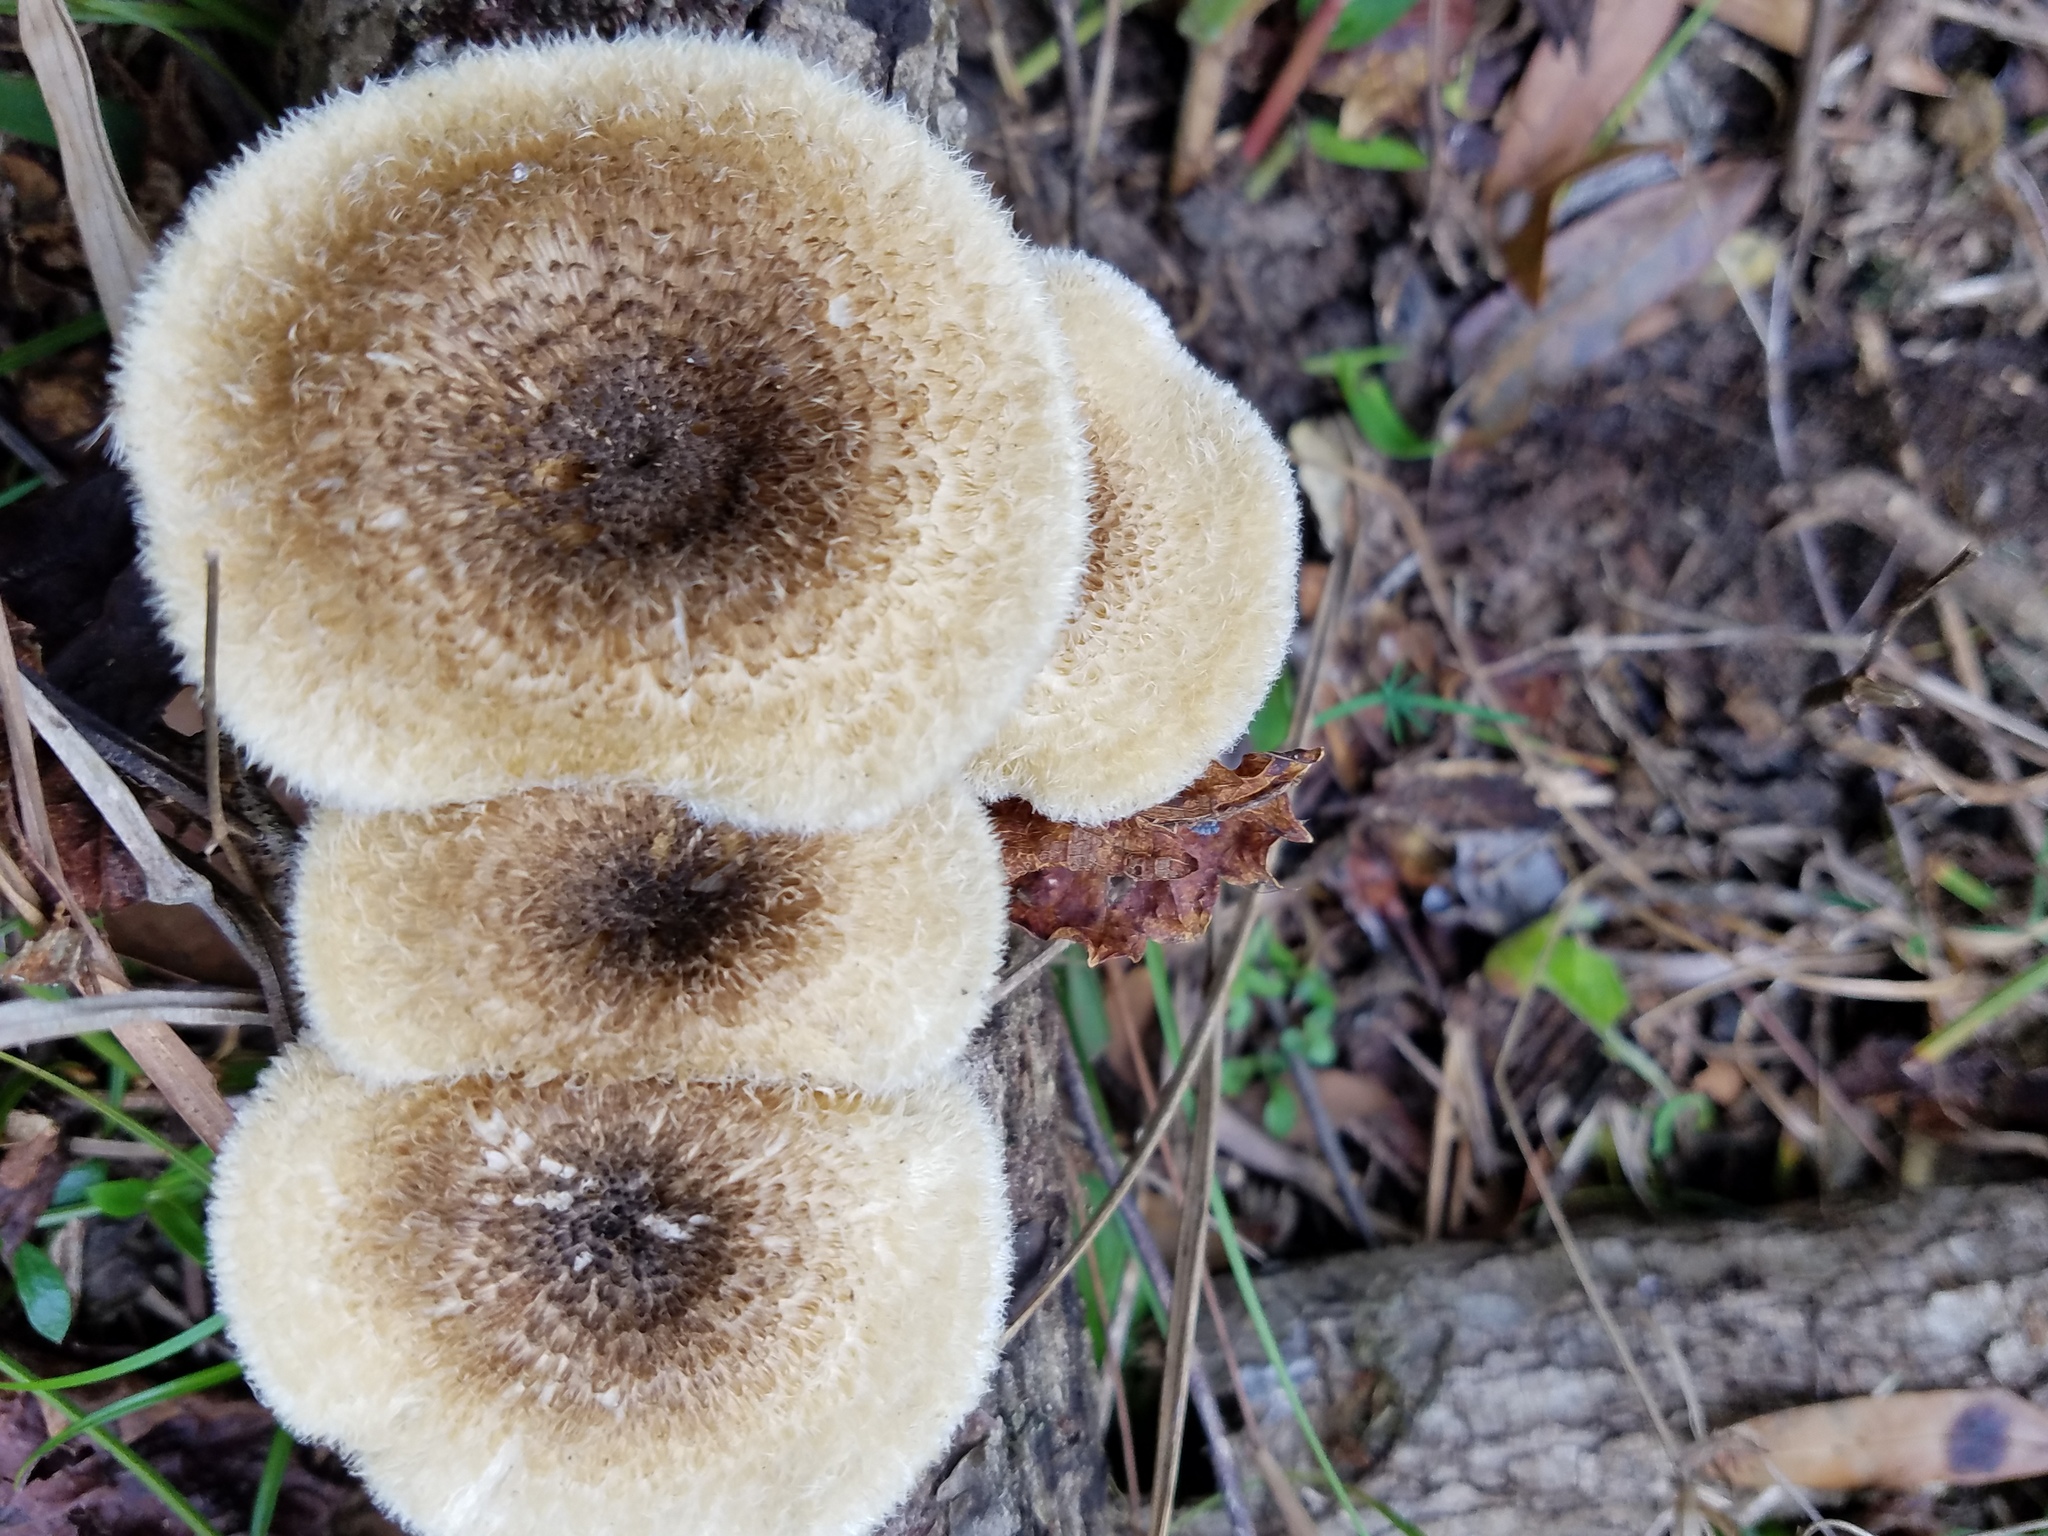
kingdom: Fungi
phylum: Basidiomycota
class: Agaricomycetes
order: Polyporales
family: Polyporaceae
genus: Lentinus
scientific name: Lentinus crinitus
